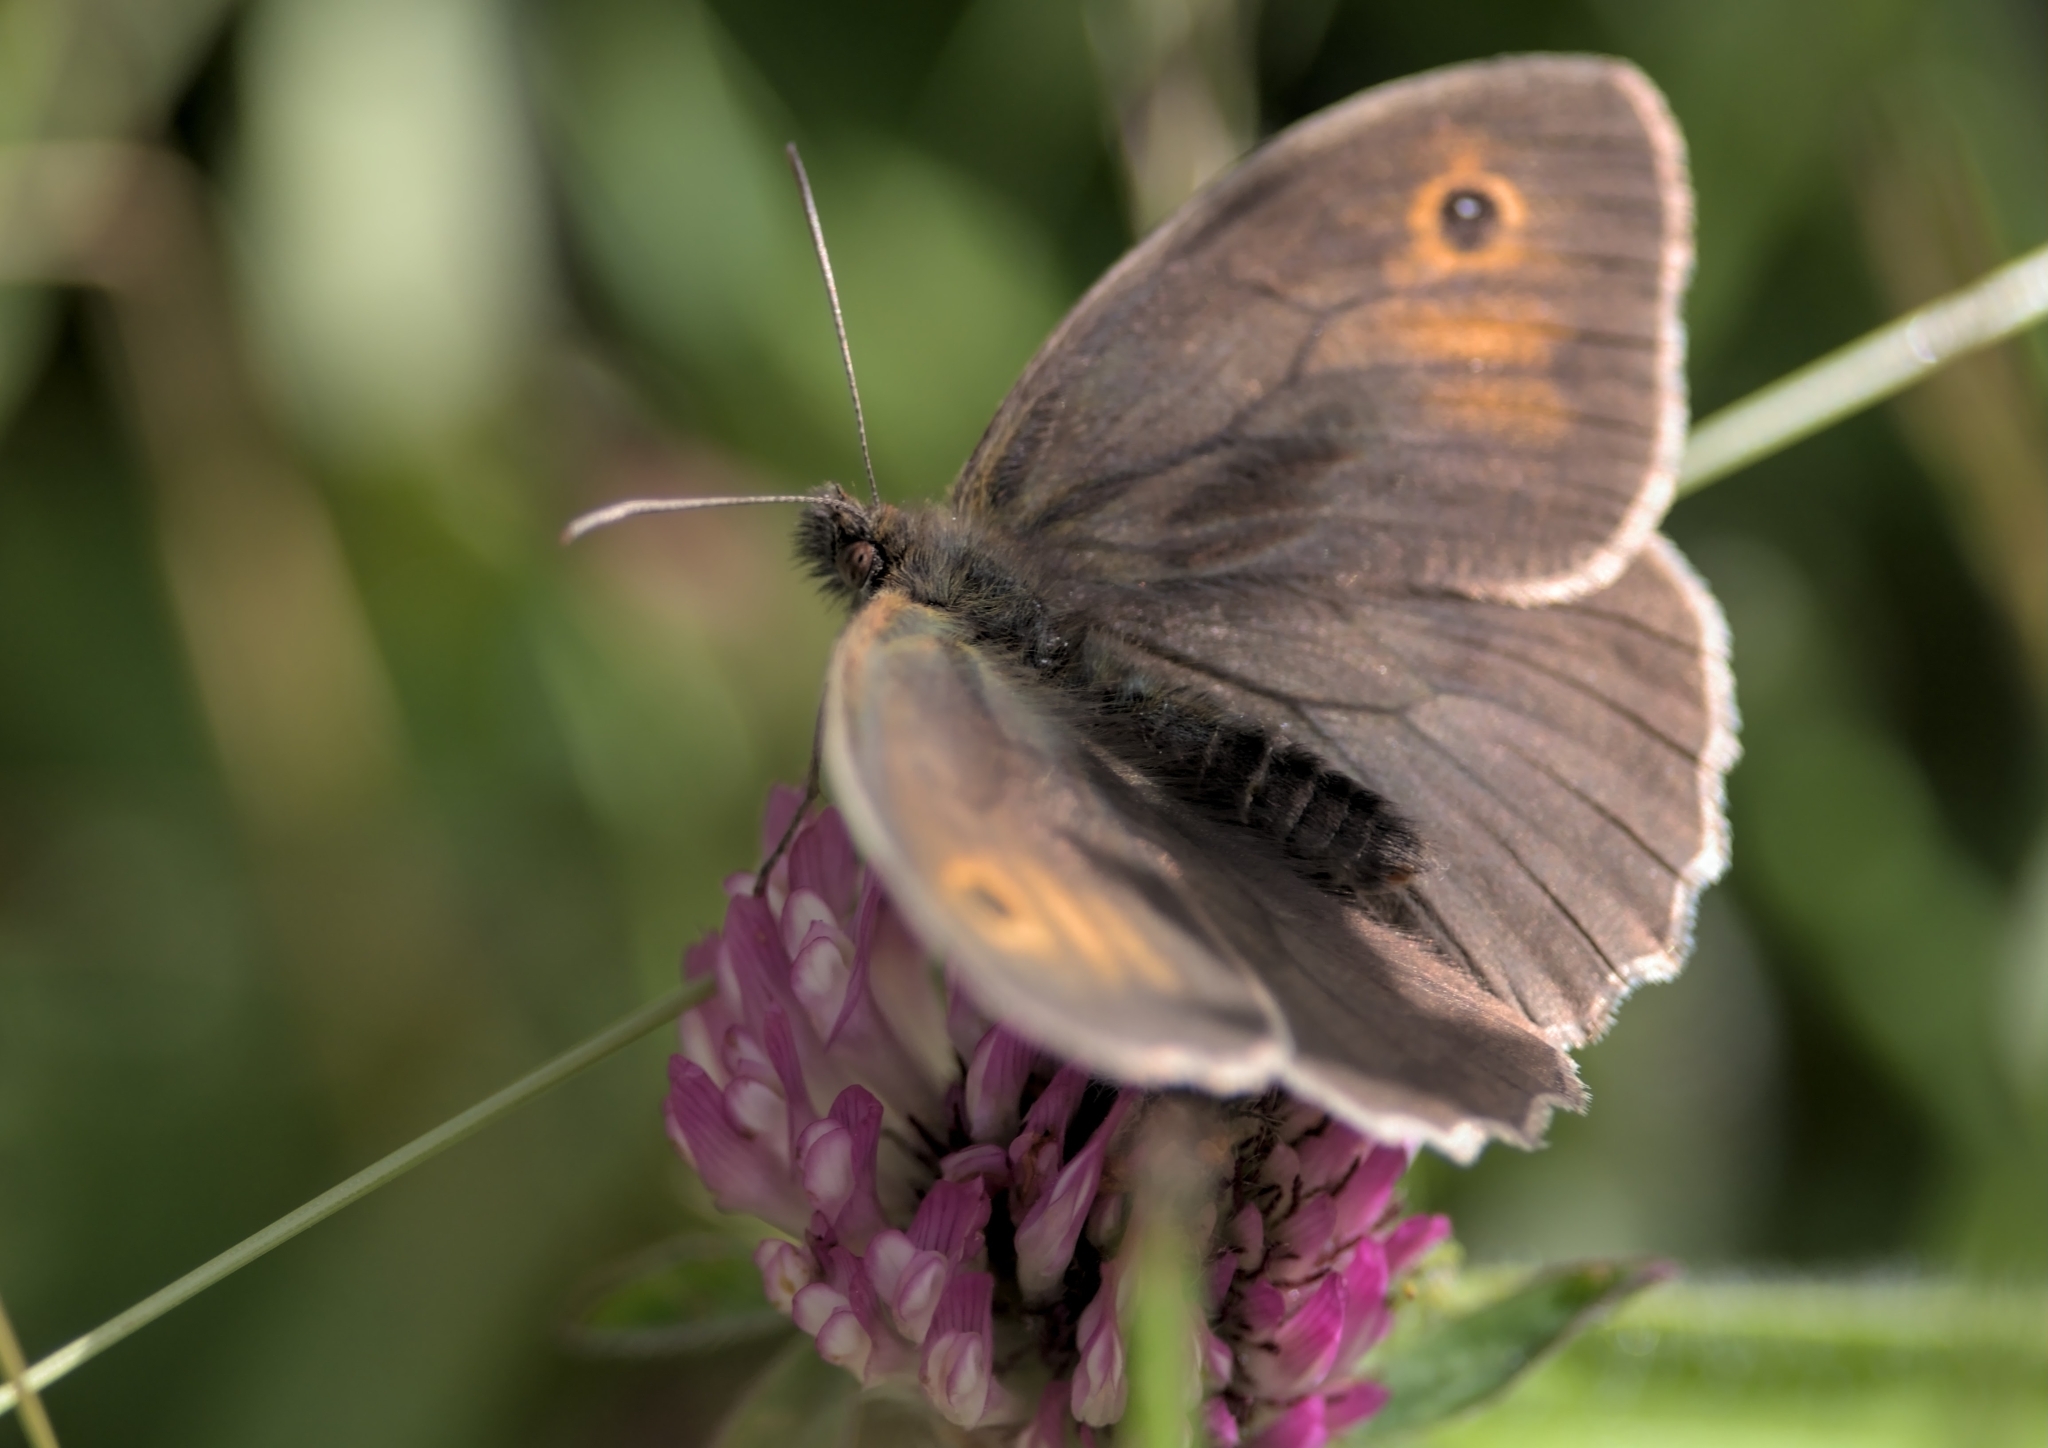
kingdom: Animalia
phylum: Arthropoda
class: Insecta
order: Lepidoptera
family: Nymphalidae
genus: Maniola
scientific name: Maniola jurtina
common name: Meadow brown
